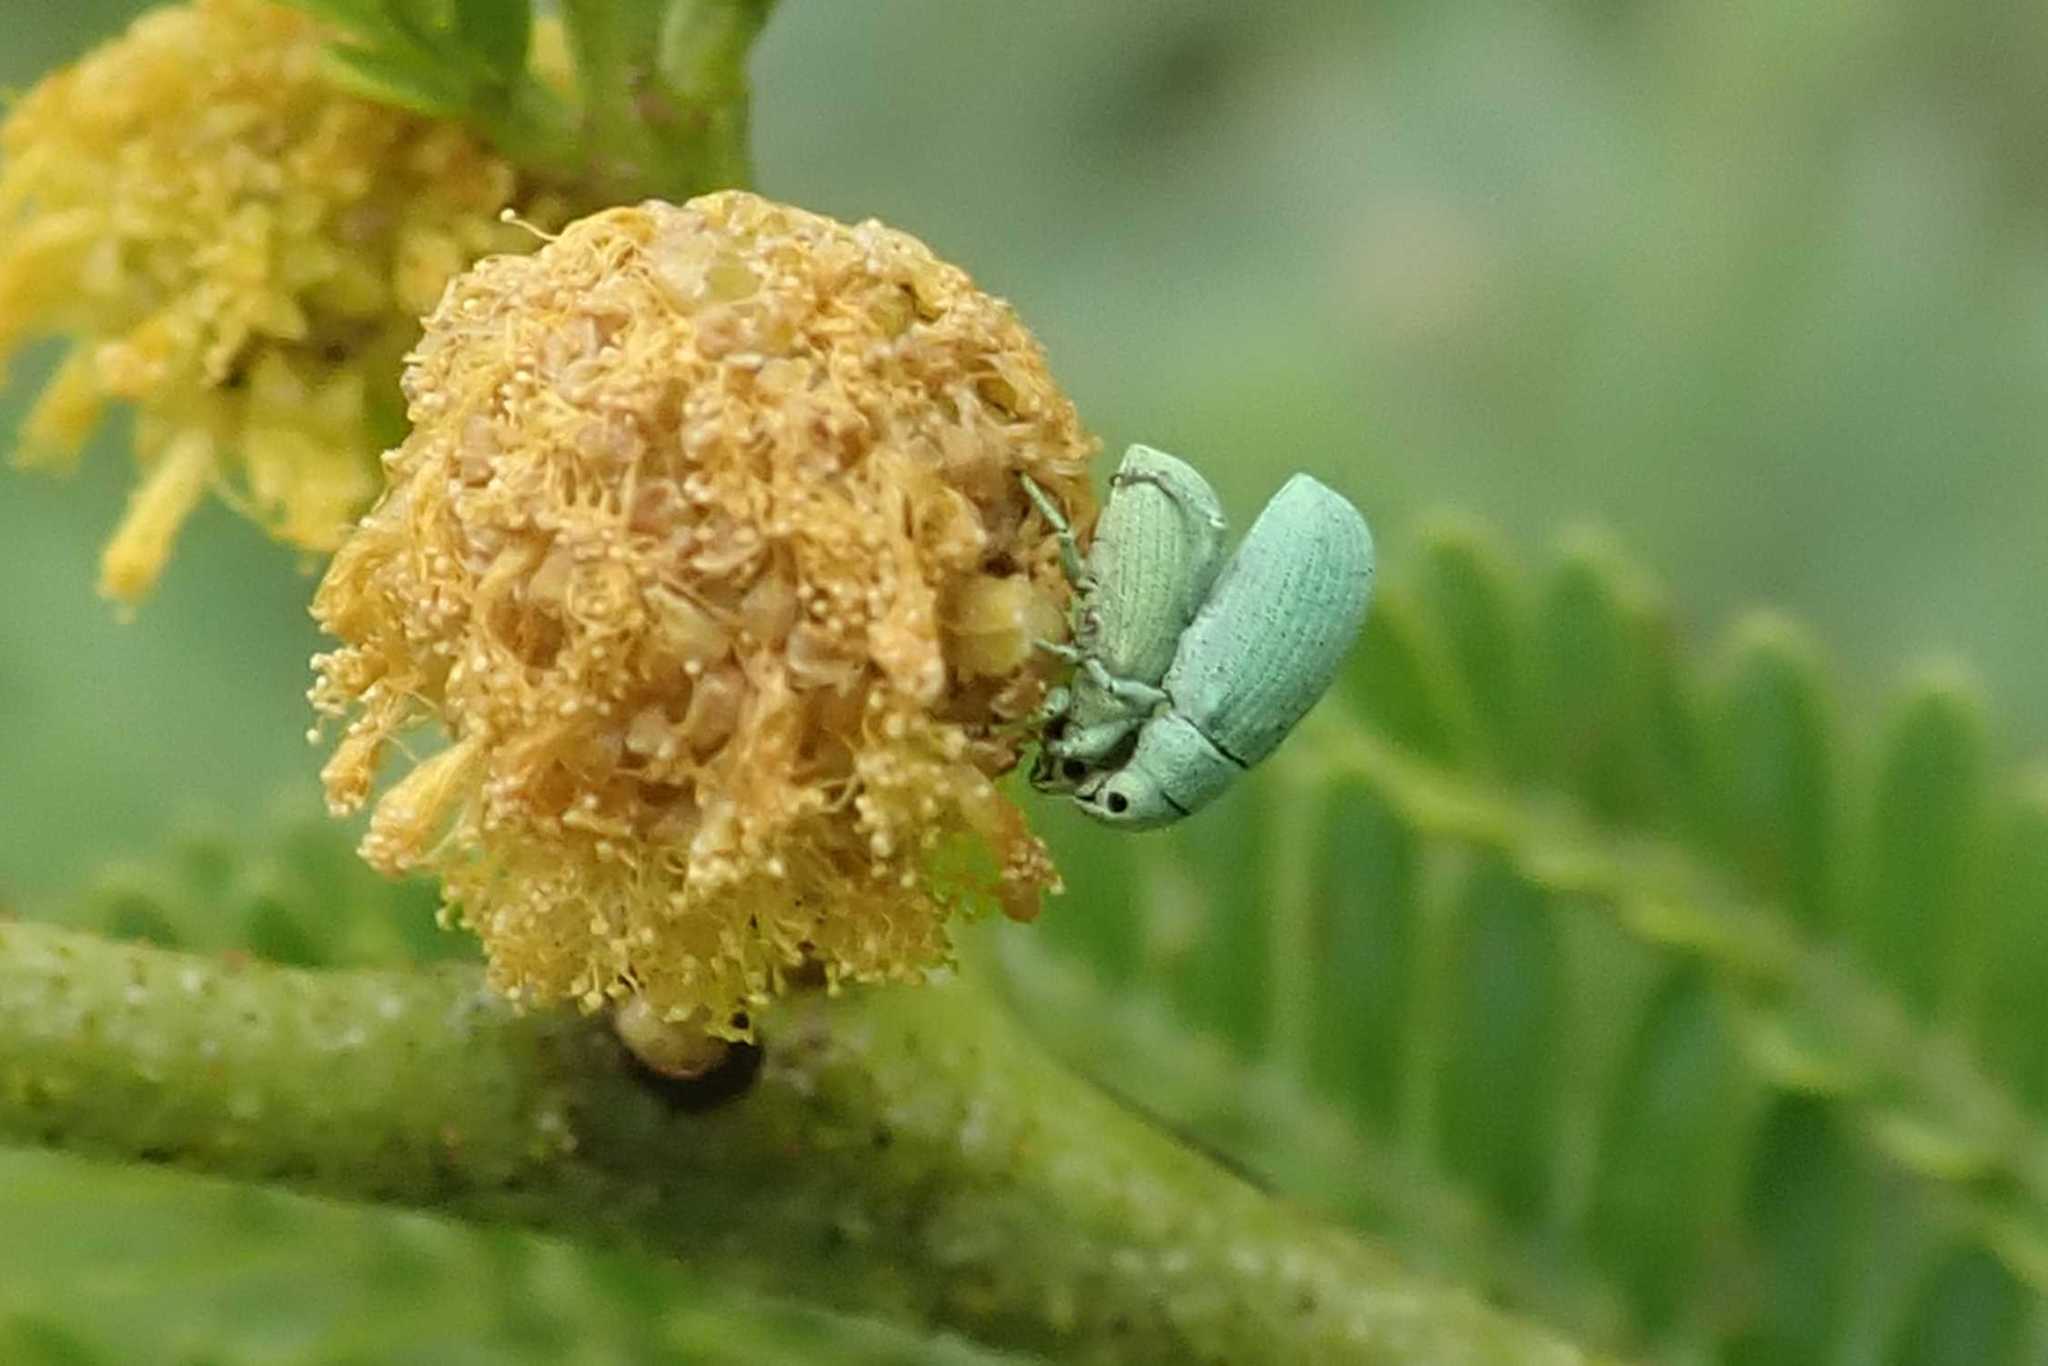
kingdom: Animalia
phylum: Arthropoda
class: Insecta
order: Coleoptera
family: Curculionidae
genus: Polydrusus
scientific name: Polydrusus zumpti
